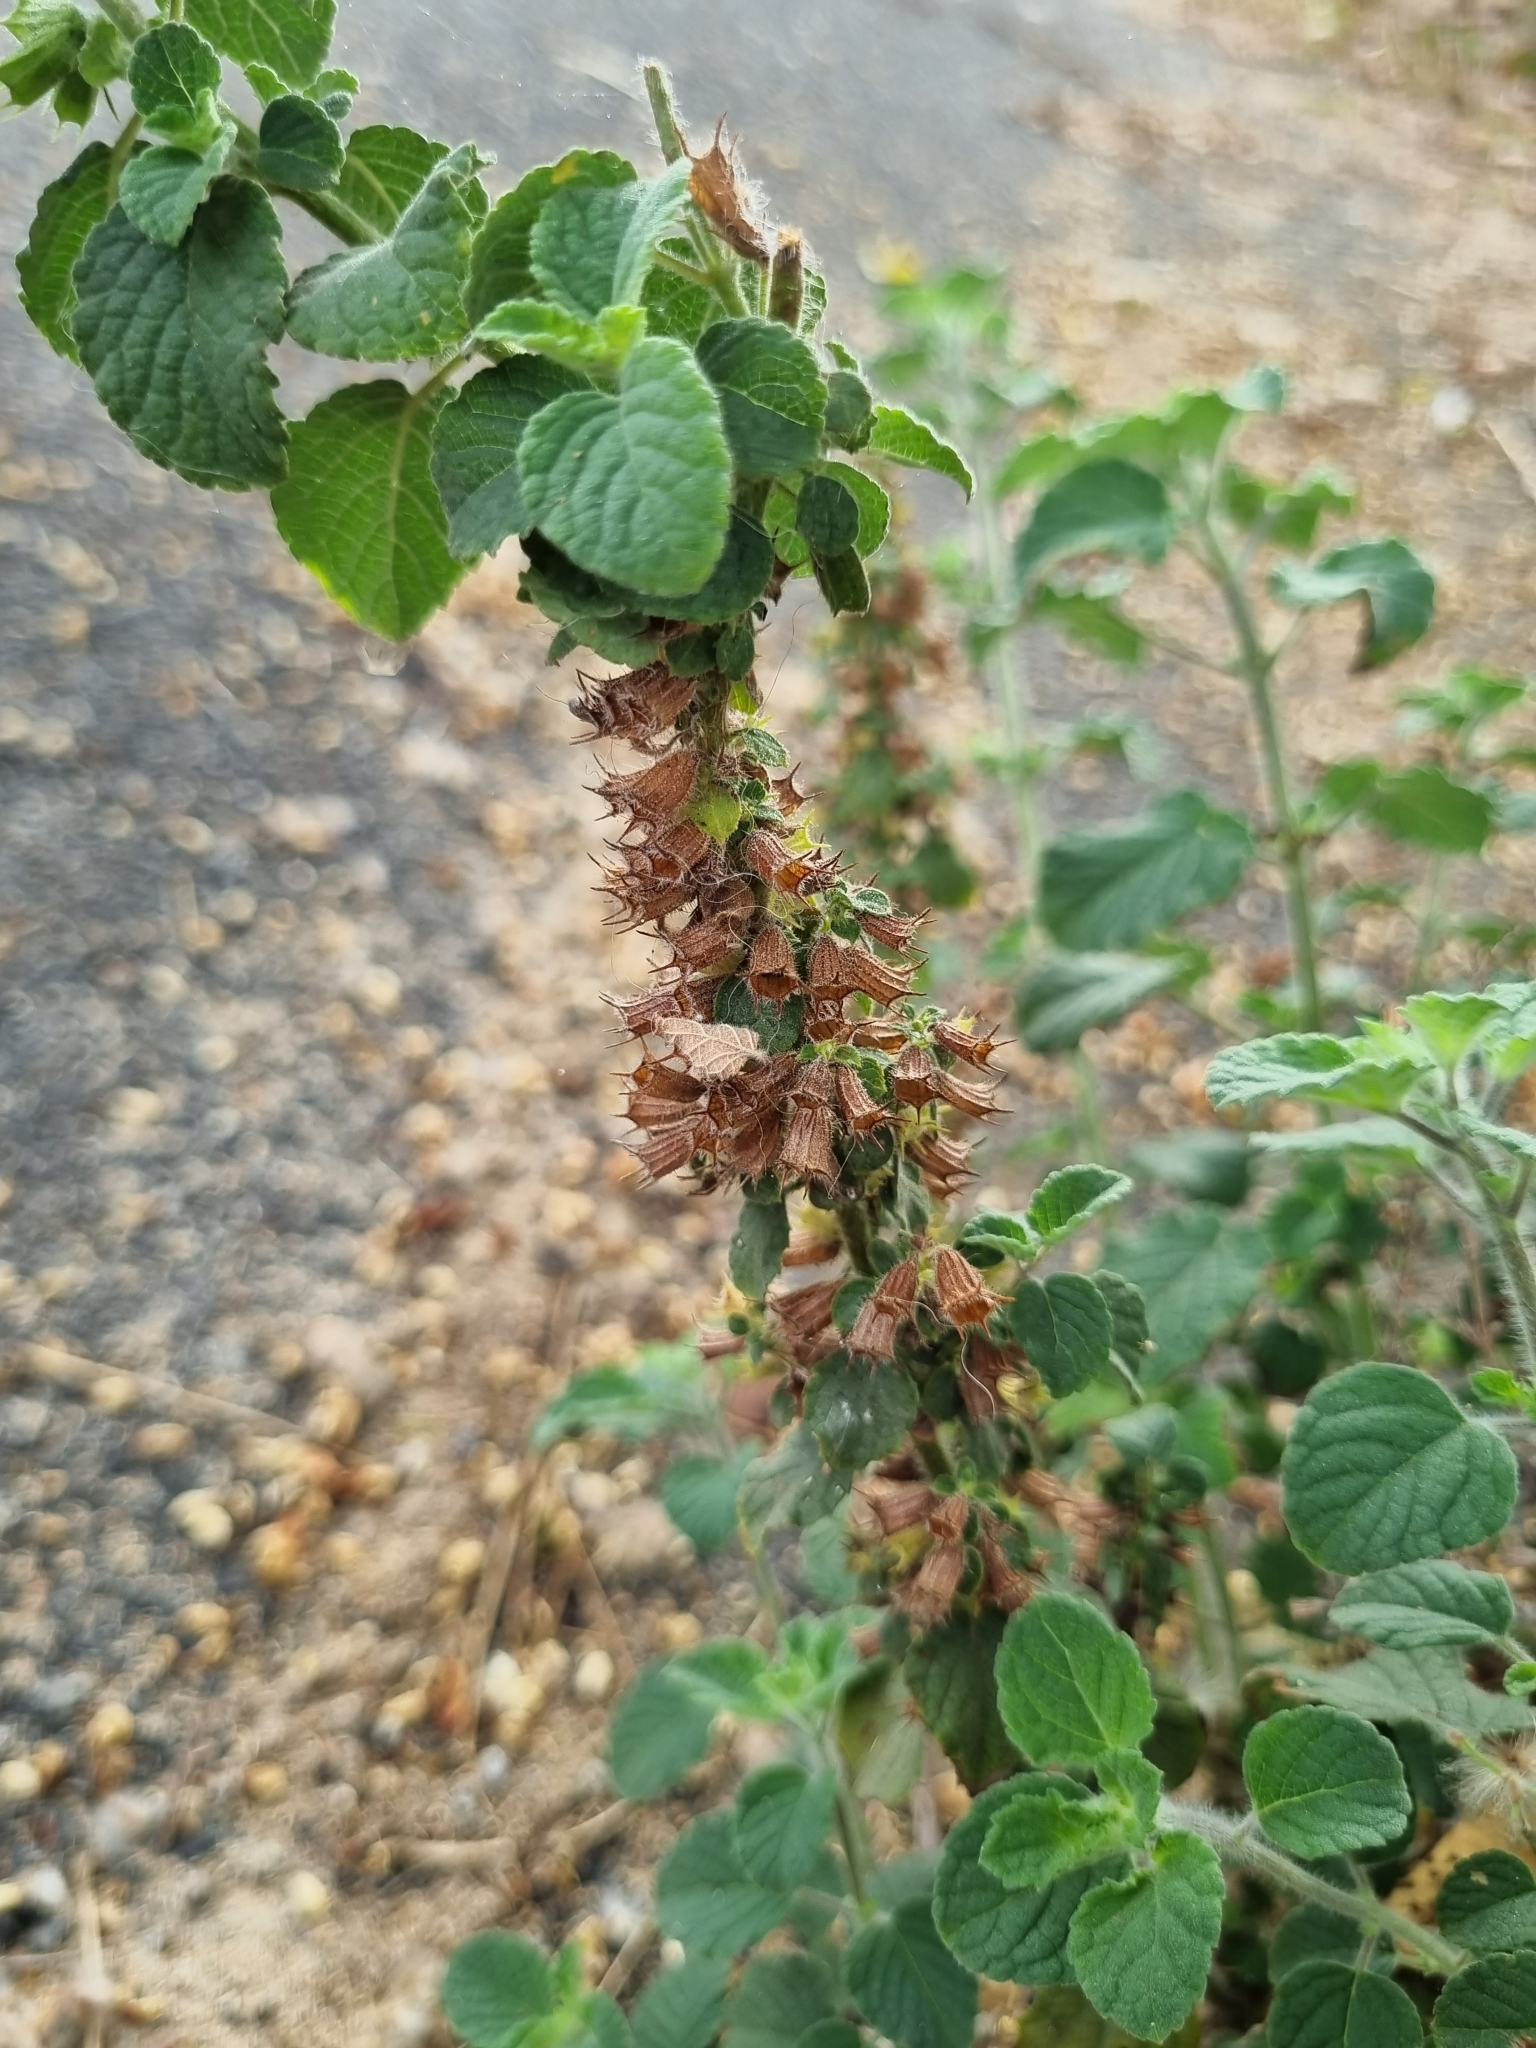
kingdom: Plantae
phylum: Tracheophyta
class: Magnoliopsida
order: Lamiales
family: Lamiaceae
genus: Mesosphaerum
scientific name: Mesosphaerum suaveolens
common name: Pignut
